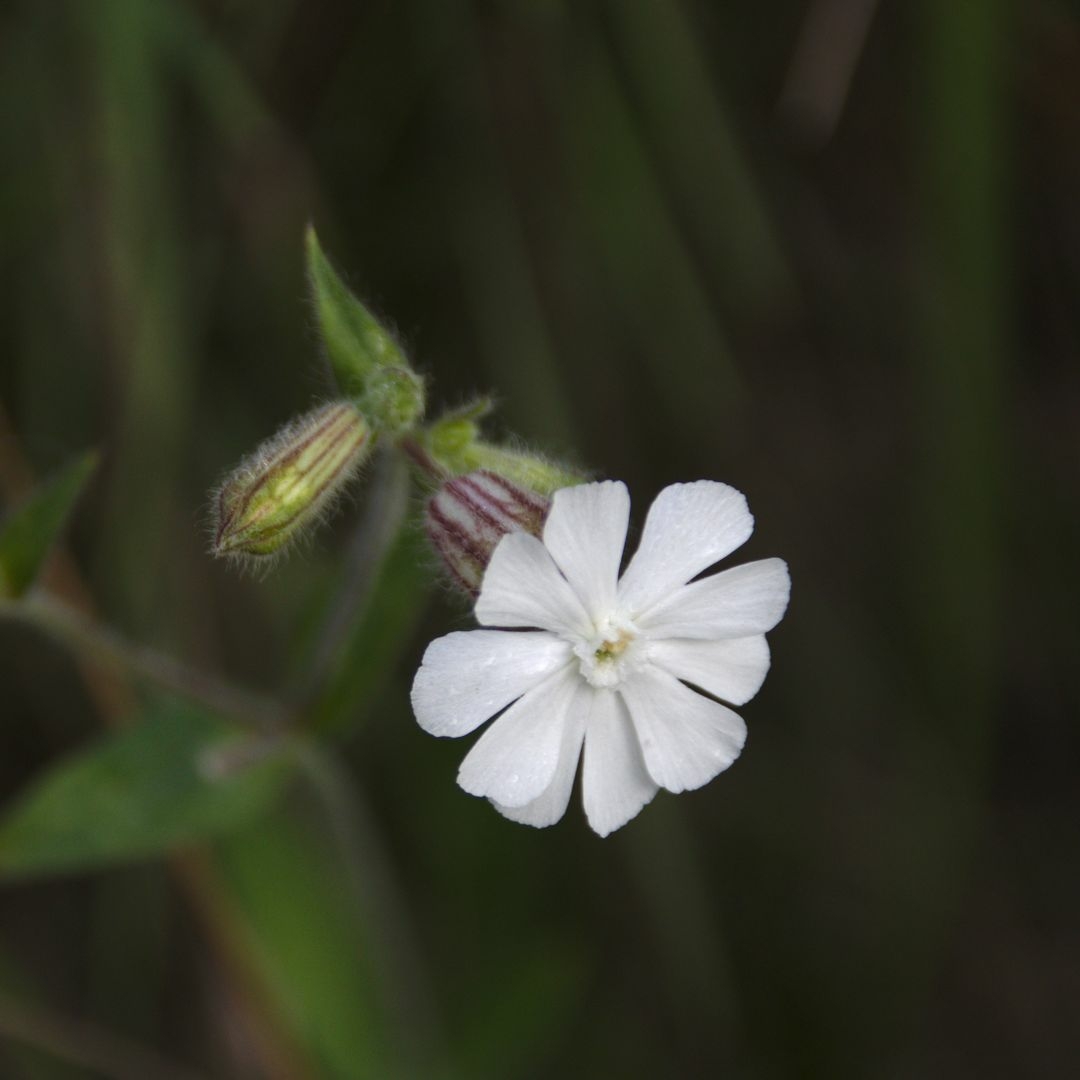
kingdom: Plantae
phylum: Tracheophyta
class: Magnoliopsida
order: Caryophyllales
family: Caryophyllaceae
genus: Silene
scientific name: Silene latifolia
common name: White campion
